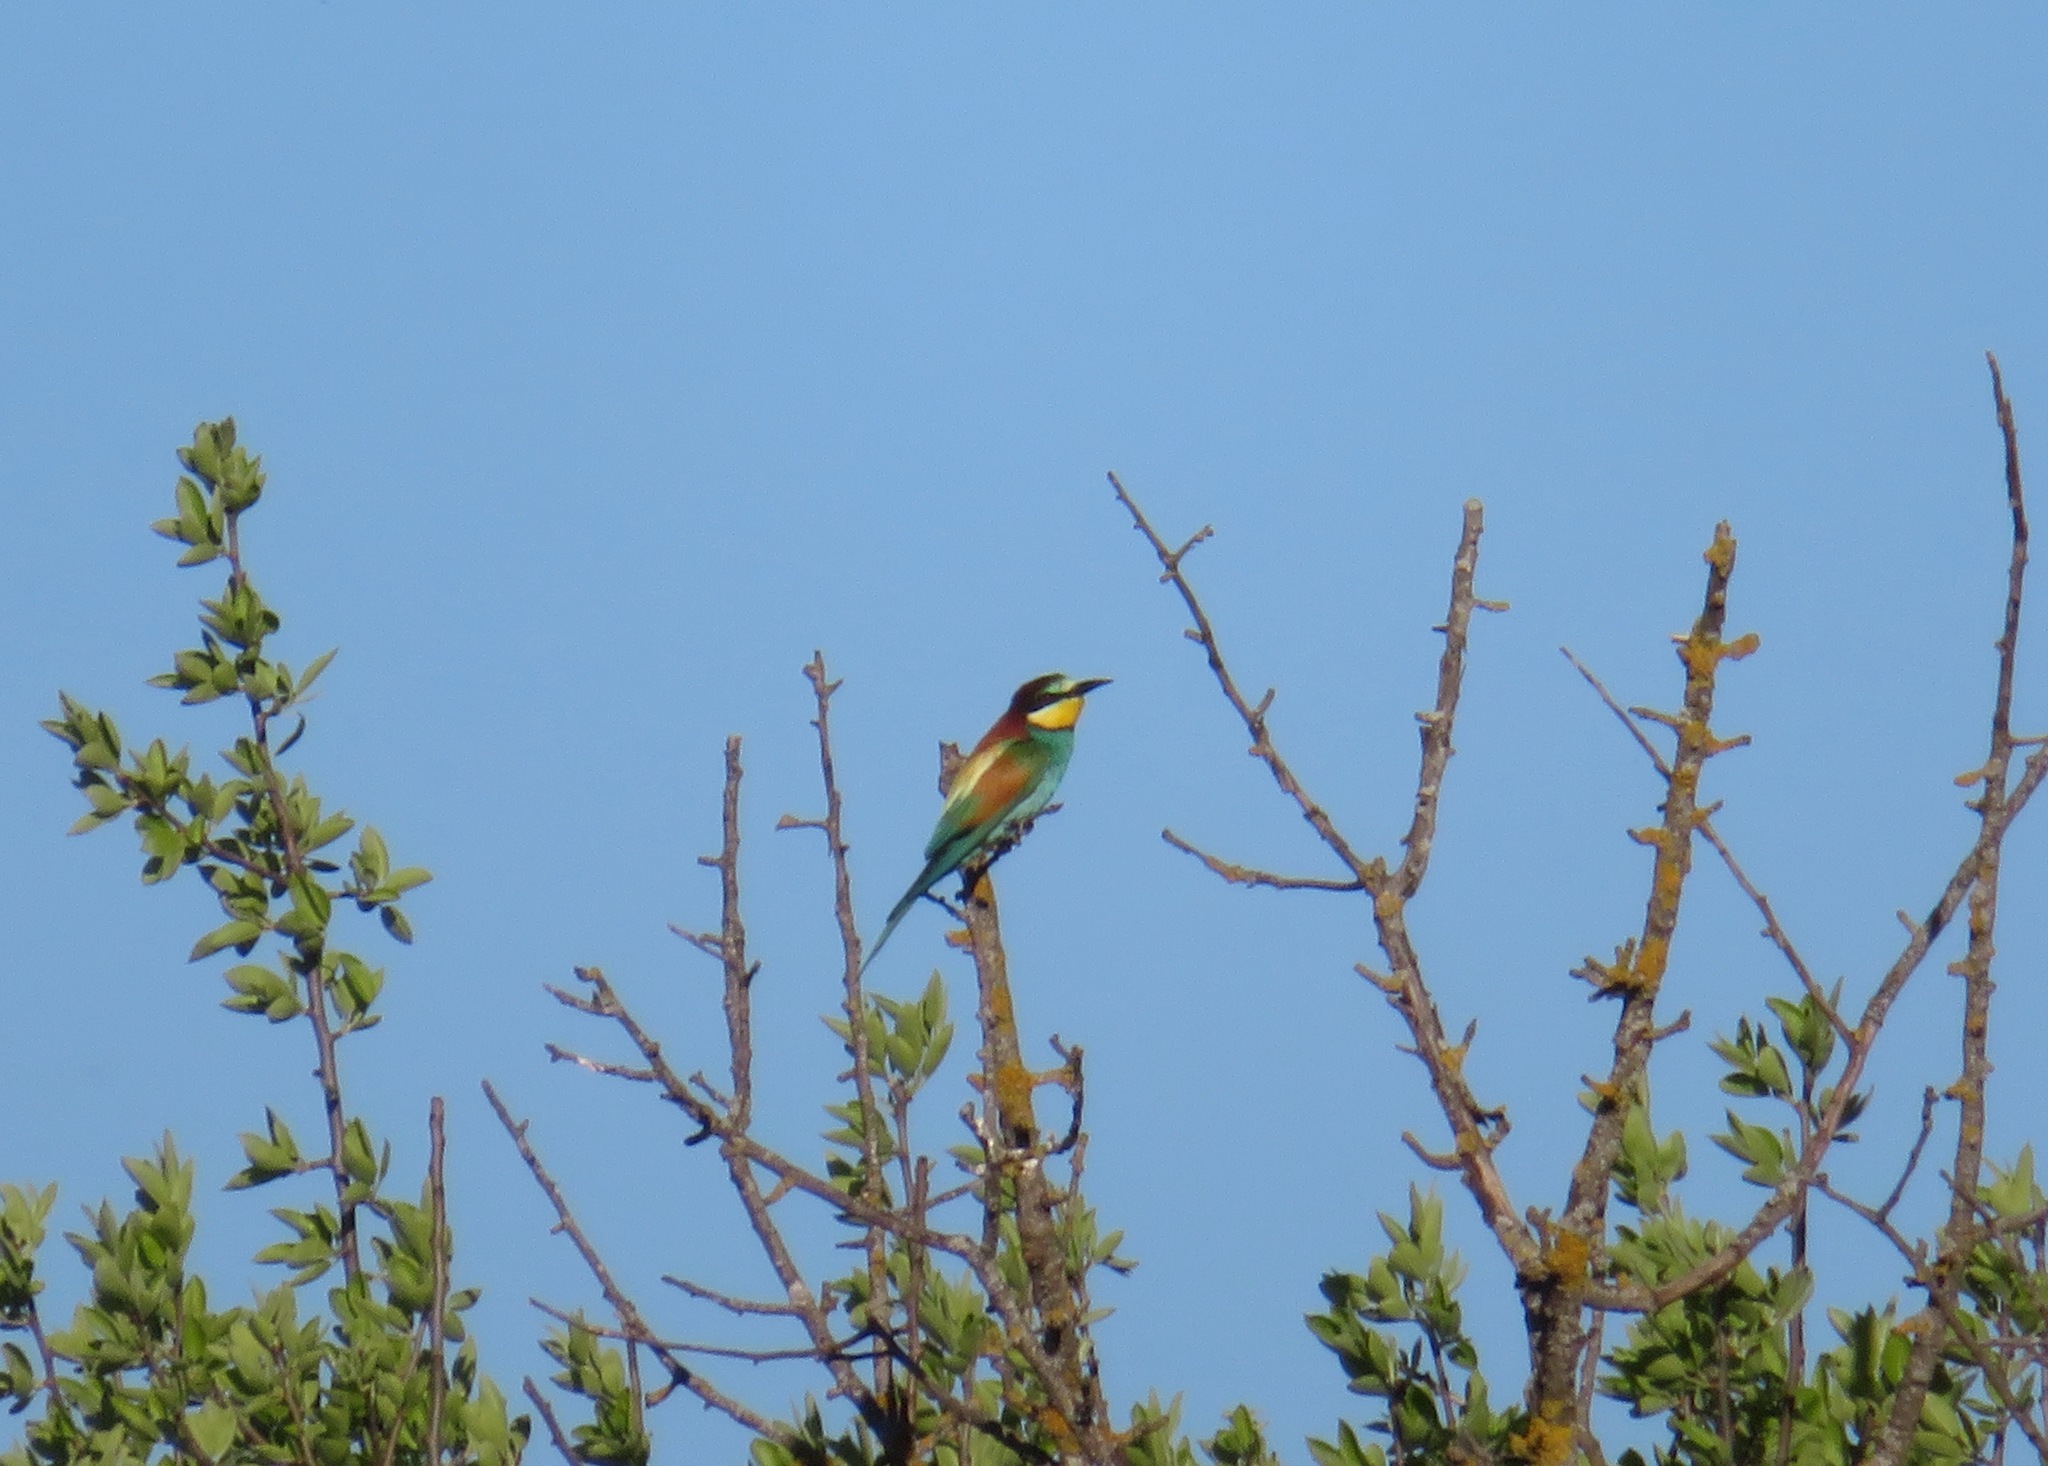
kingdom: Animalia
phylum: Chordata
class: Aves
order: Coraciiformes
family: Meropidae
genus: Merops
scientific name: Merops apiaster
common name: European bee-eater
